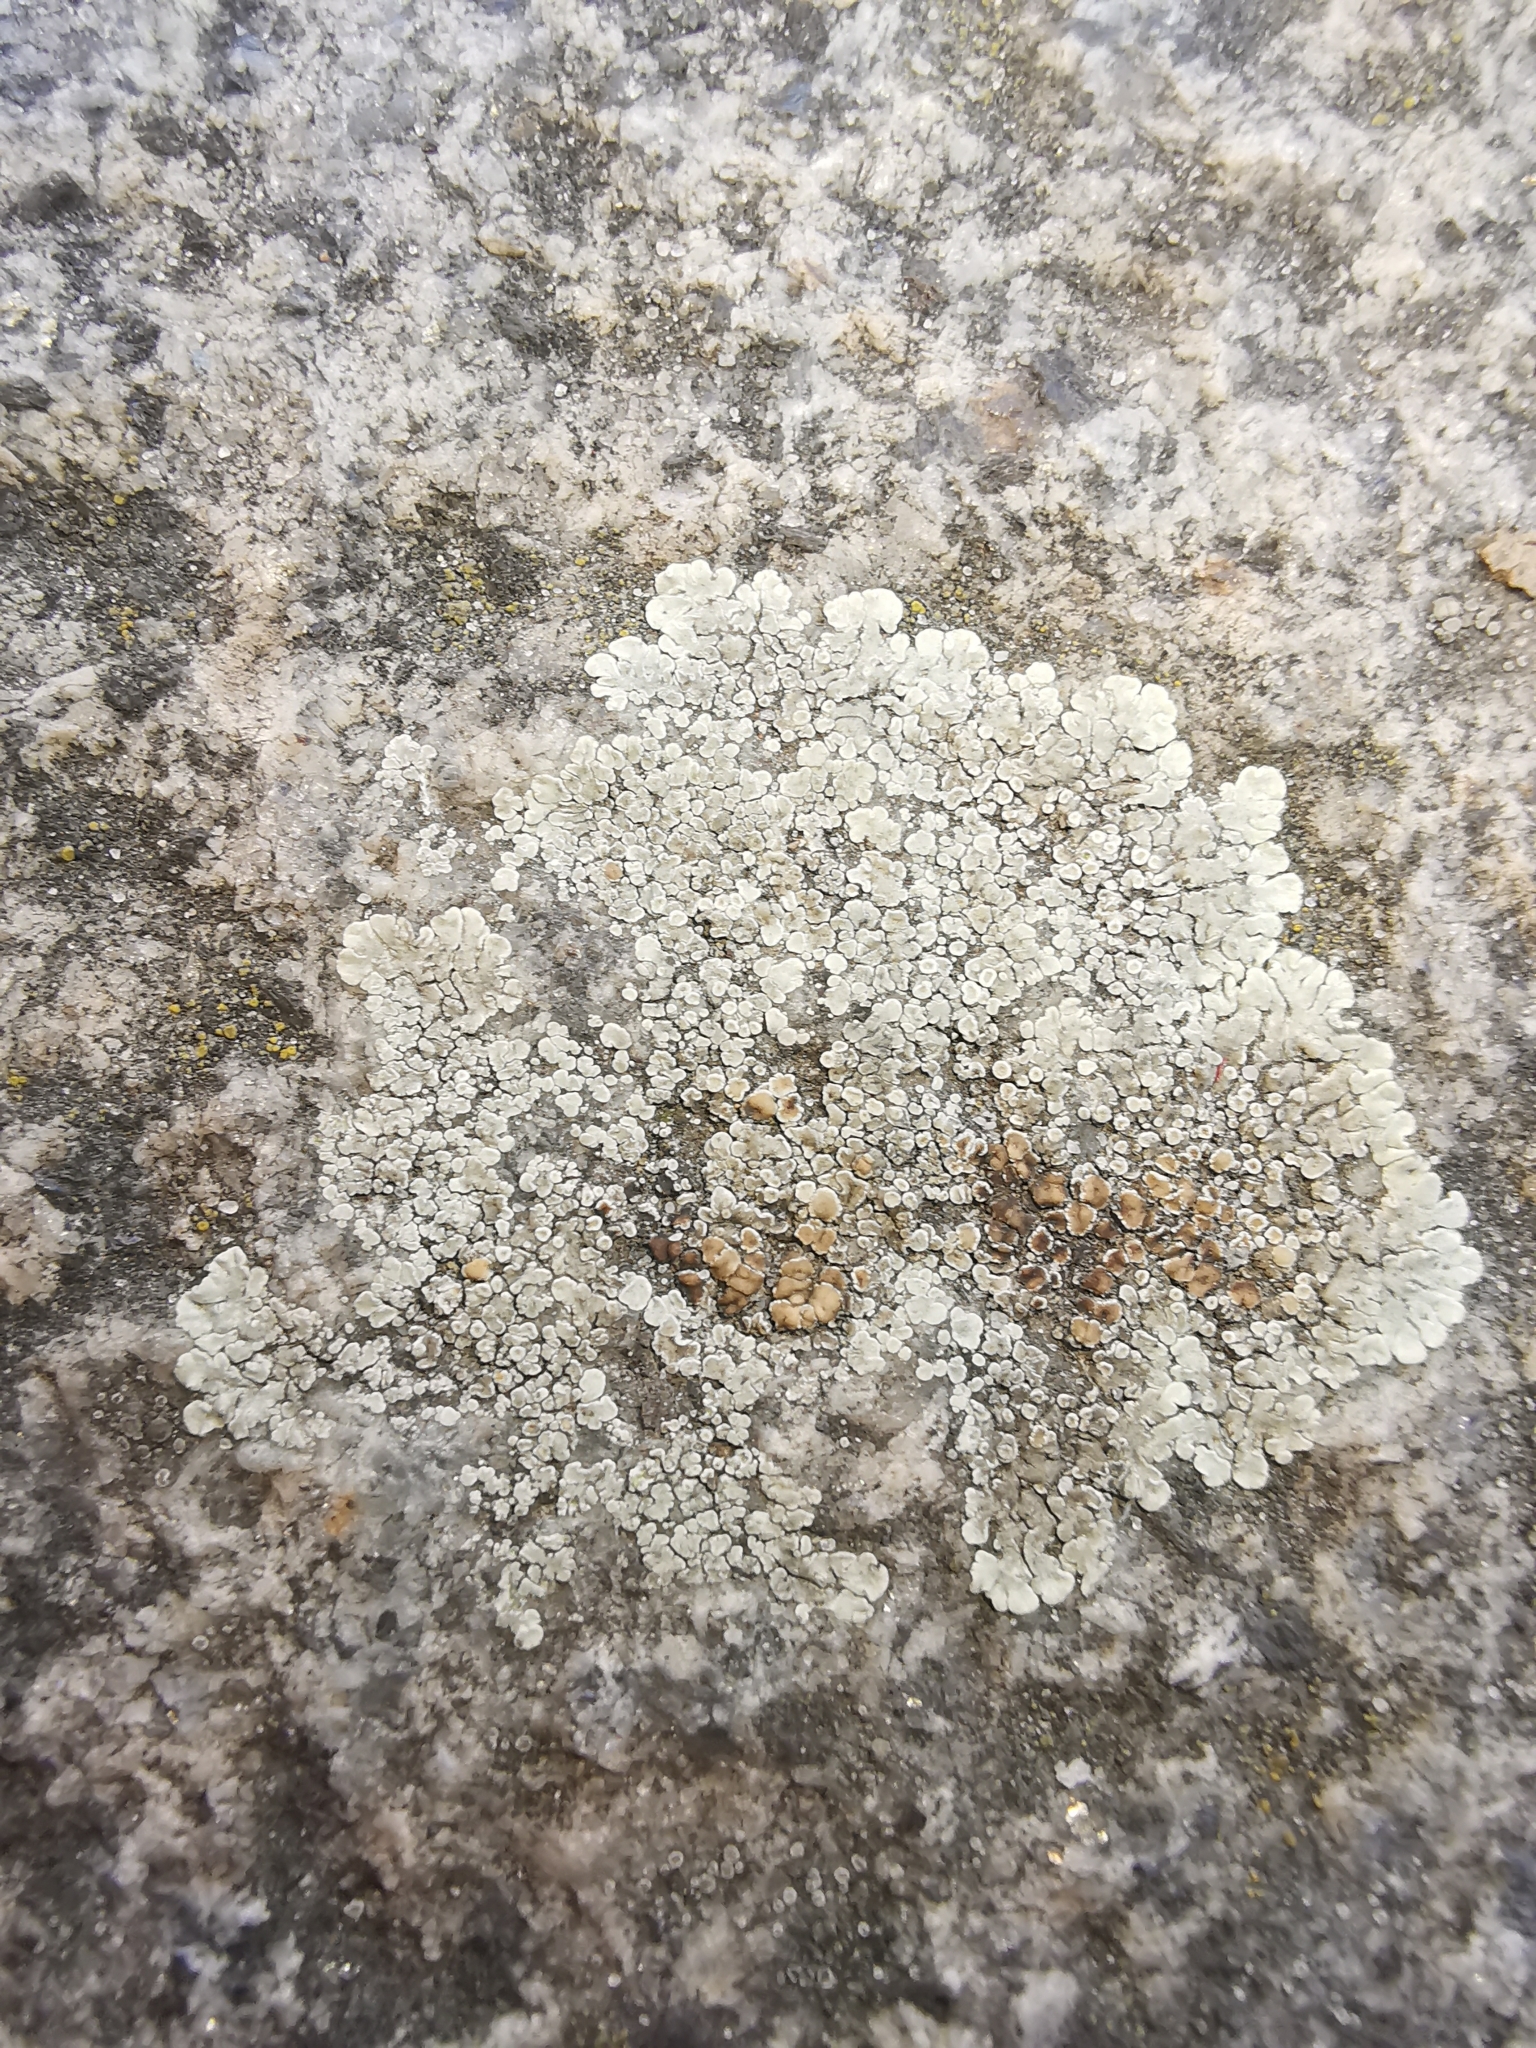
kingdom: Fungi
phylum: Ascomycota
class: Lecanoromycetes
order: Lecanorales
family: Lecanoraceae
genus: Protoparmeliopsis
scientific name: Protoparmeliopsis muralis
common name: Stonewall rim lichen
